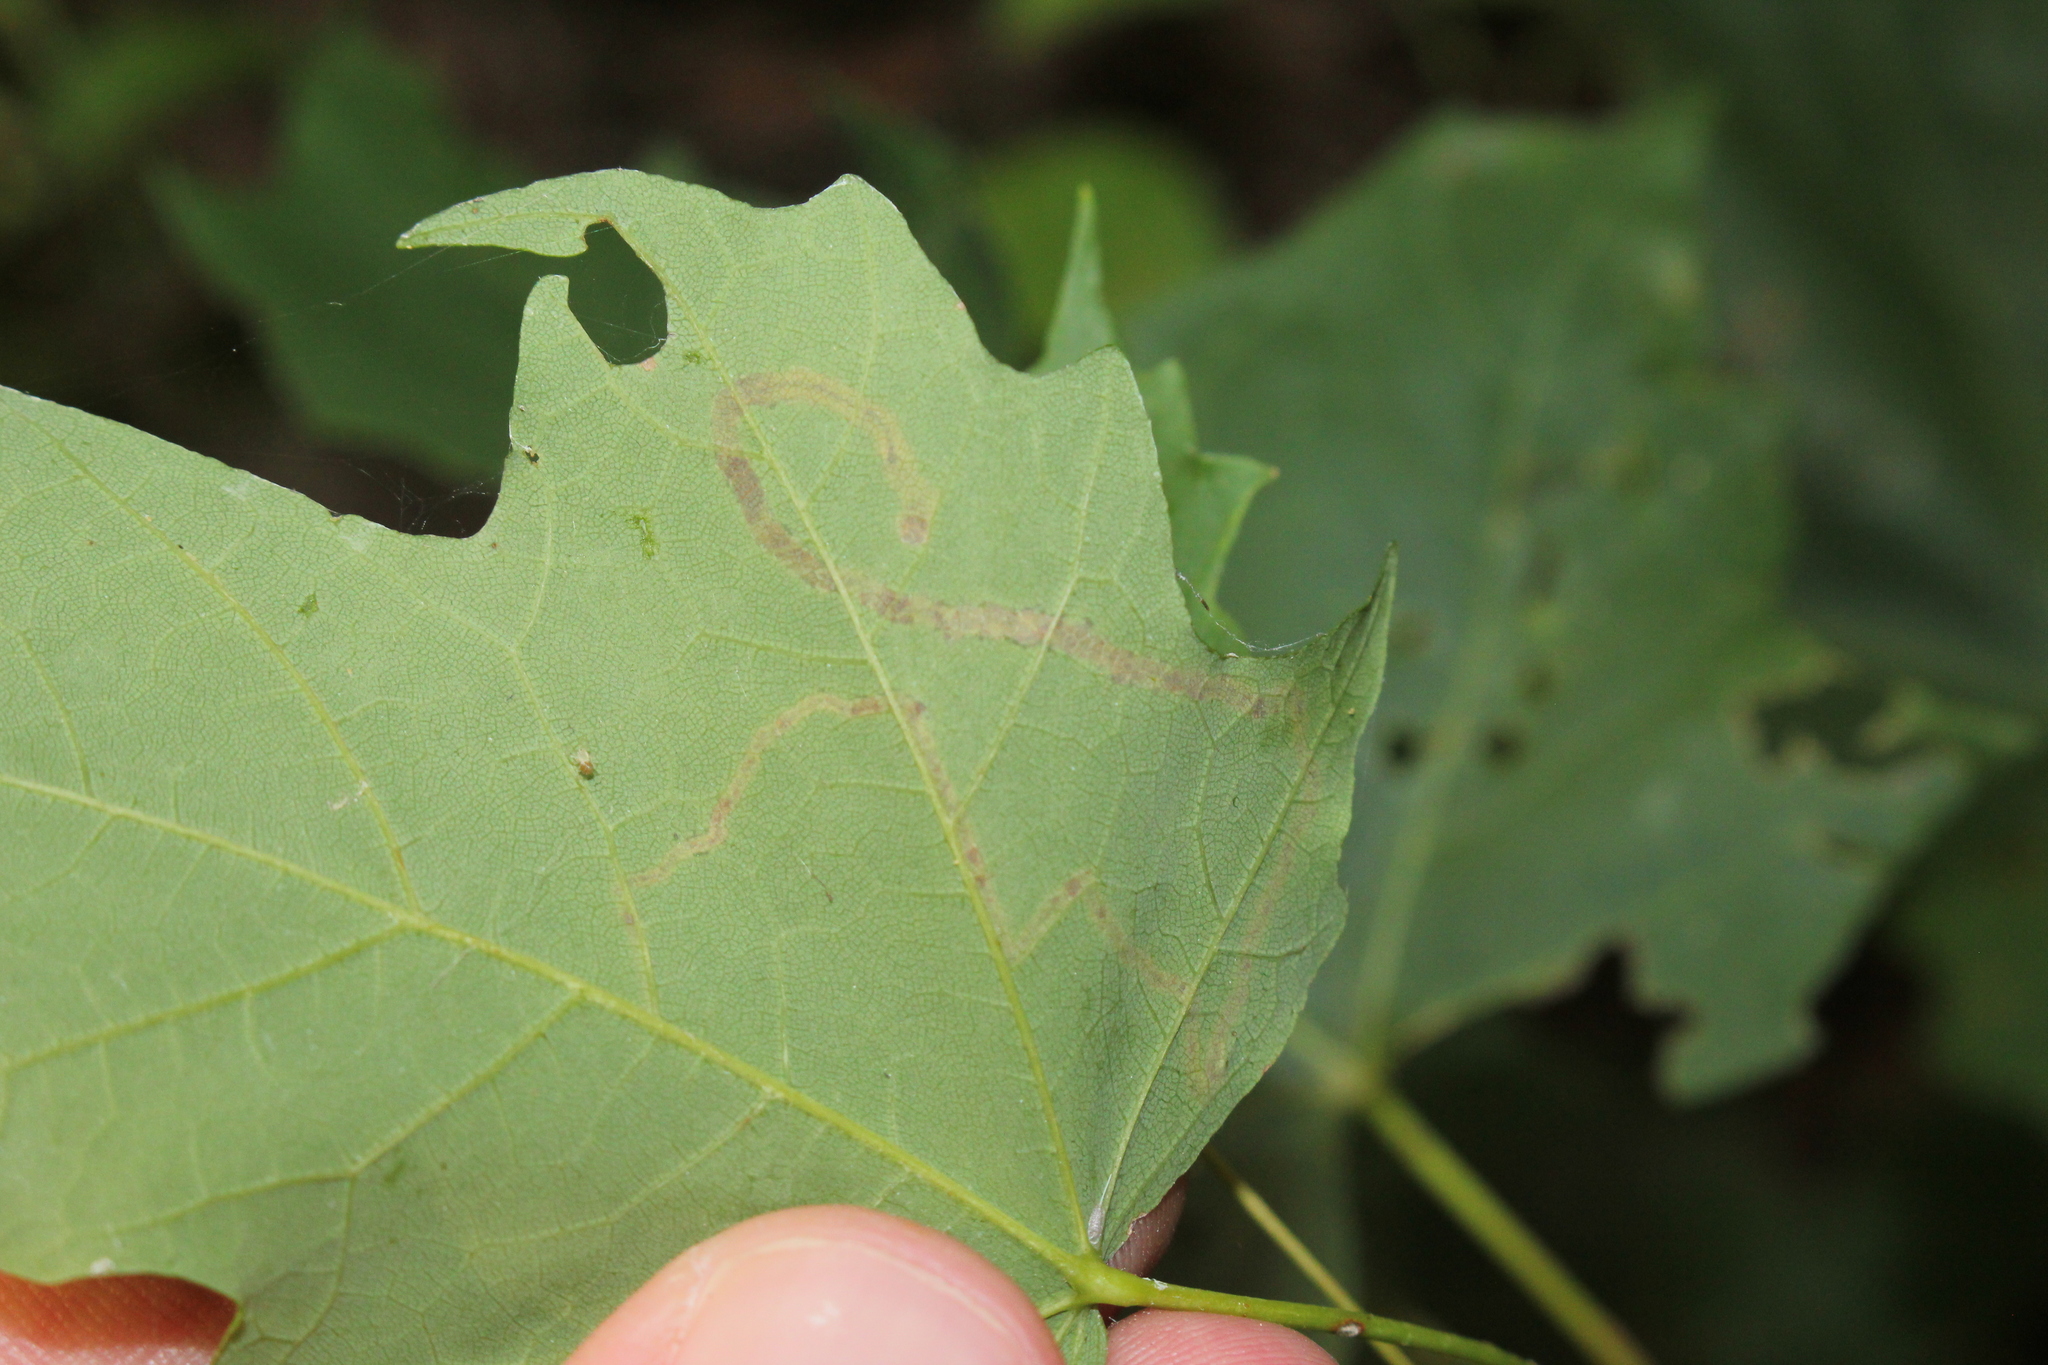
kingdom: Animalia
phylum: Arthropoda
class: Insecta
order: Lepidoptera
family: Nepticulidae
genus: Glaucolepis
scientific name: Glaucolepis saccharella
